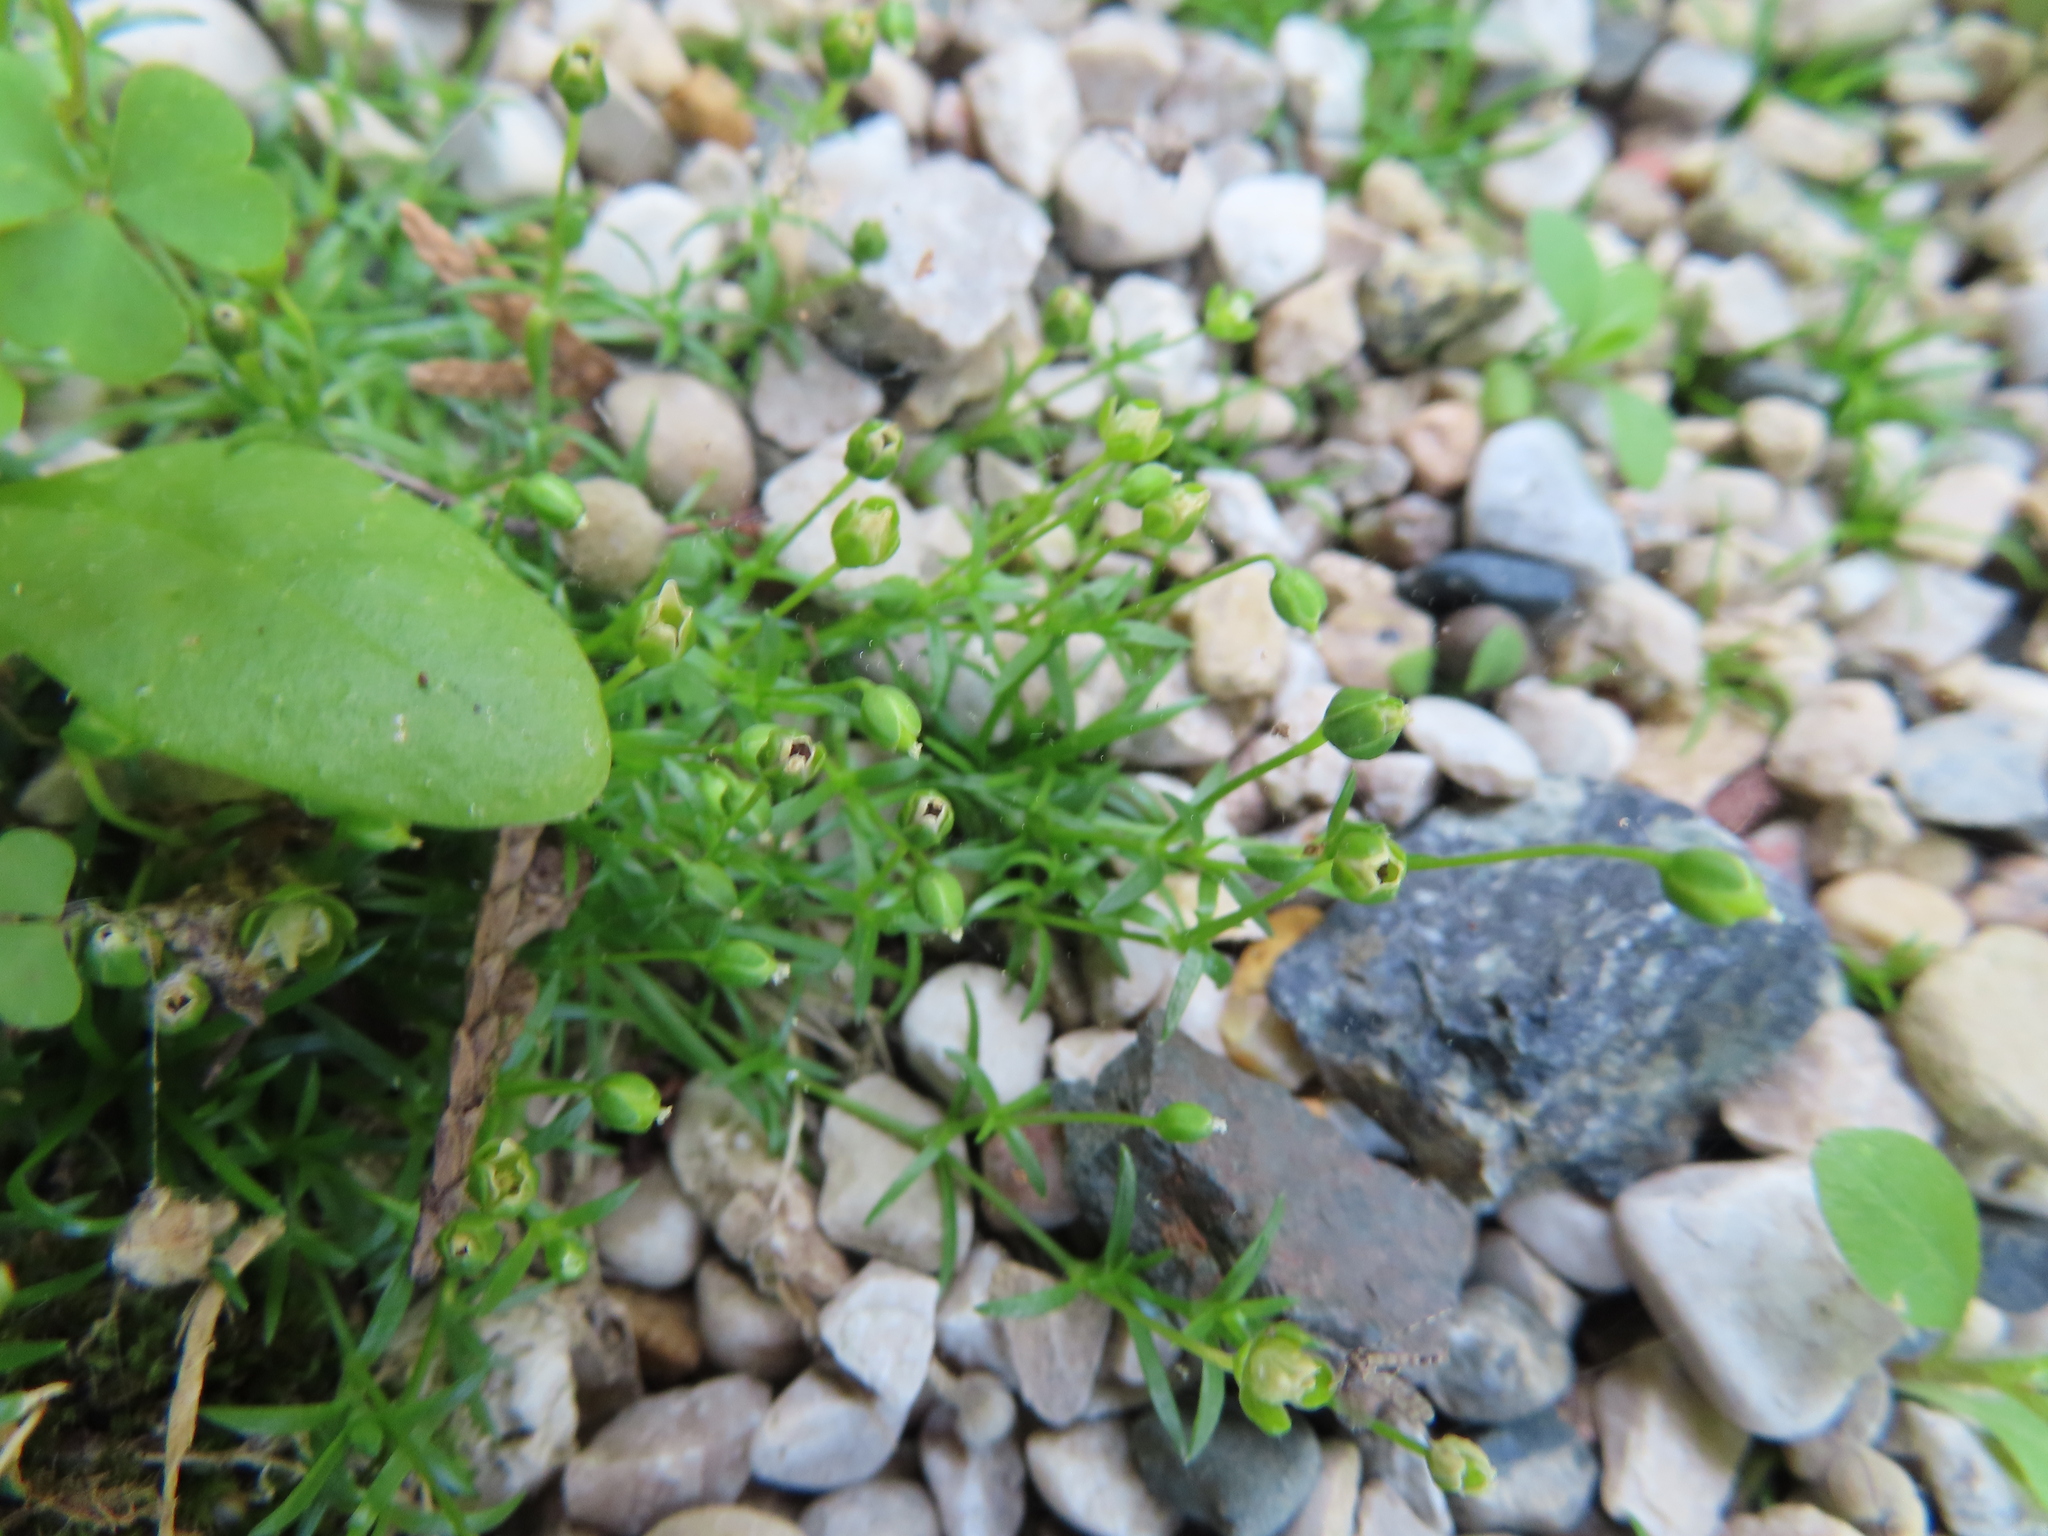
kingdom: Plantae
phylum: Tracheophyta
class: Magnoliopsida
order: Caryophyllales
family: Caryophyllaceae
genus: Sagina
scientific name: Sagina procumbens
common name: Procumbent pearlwort
